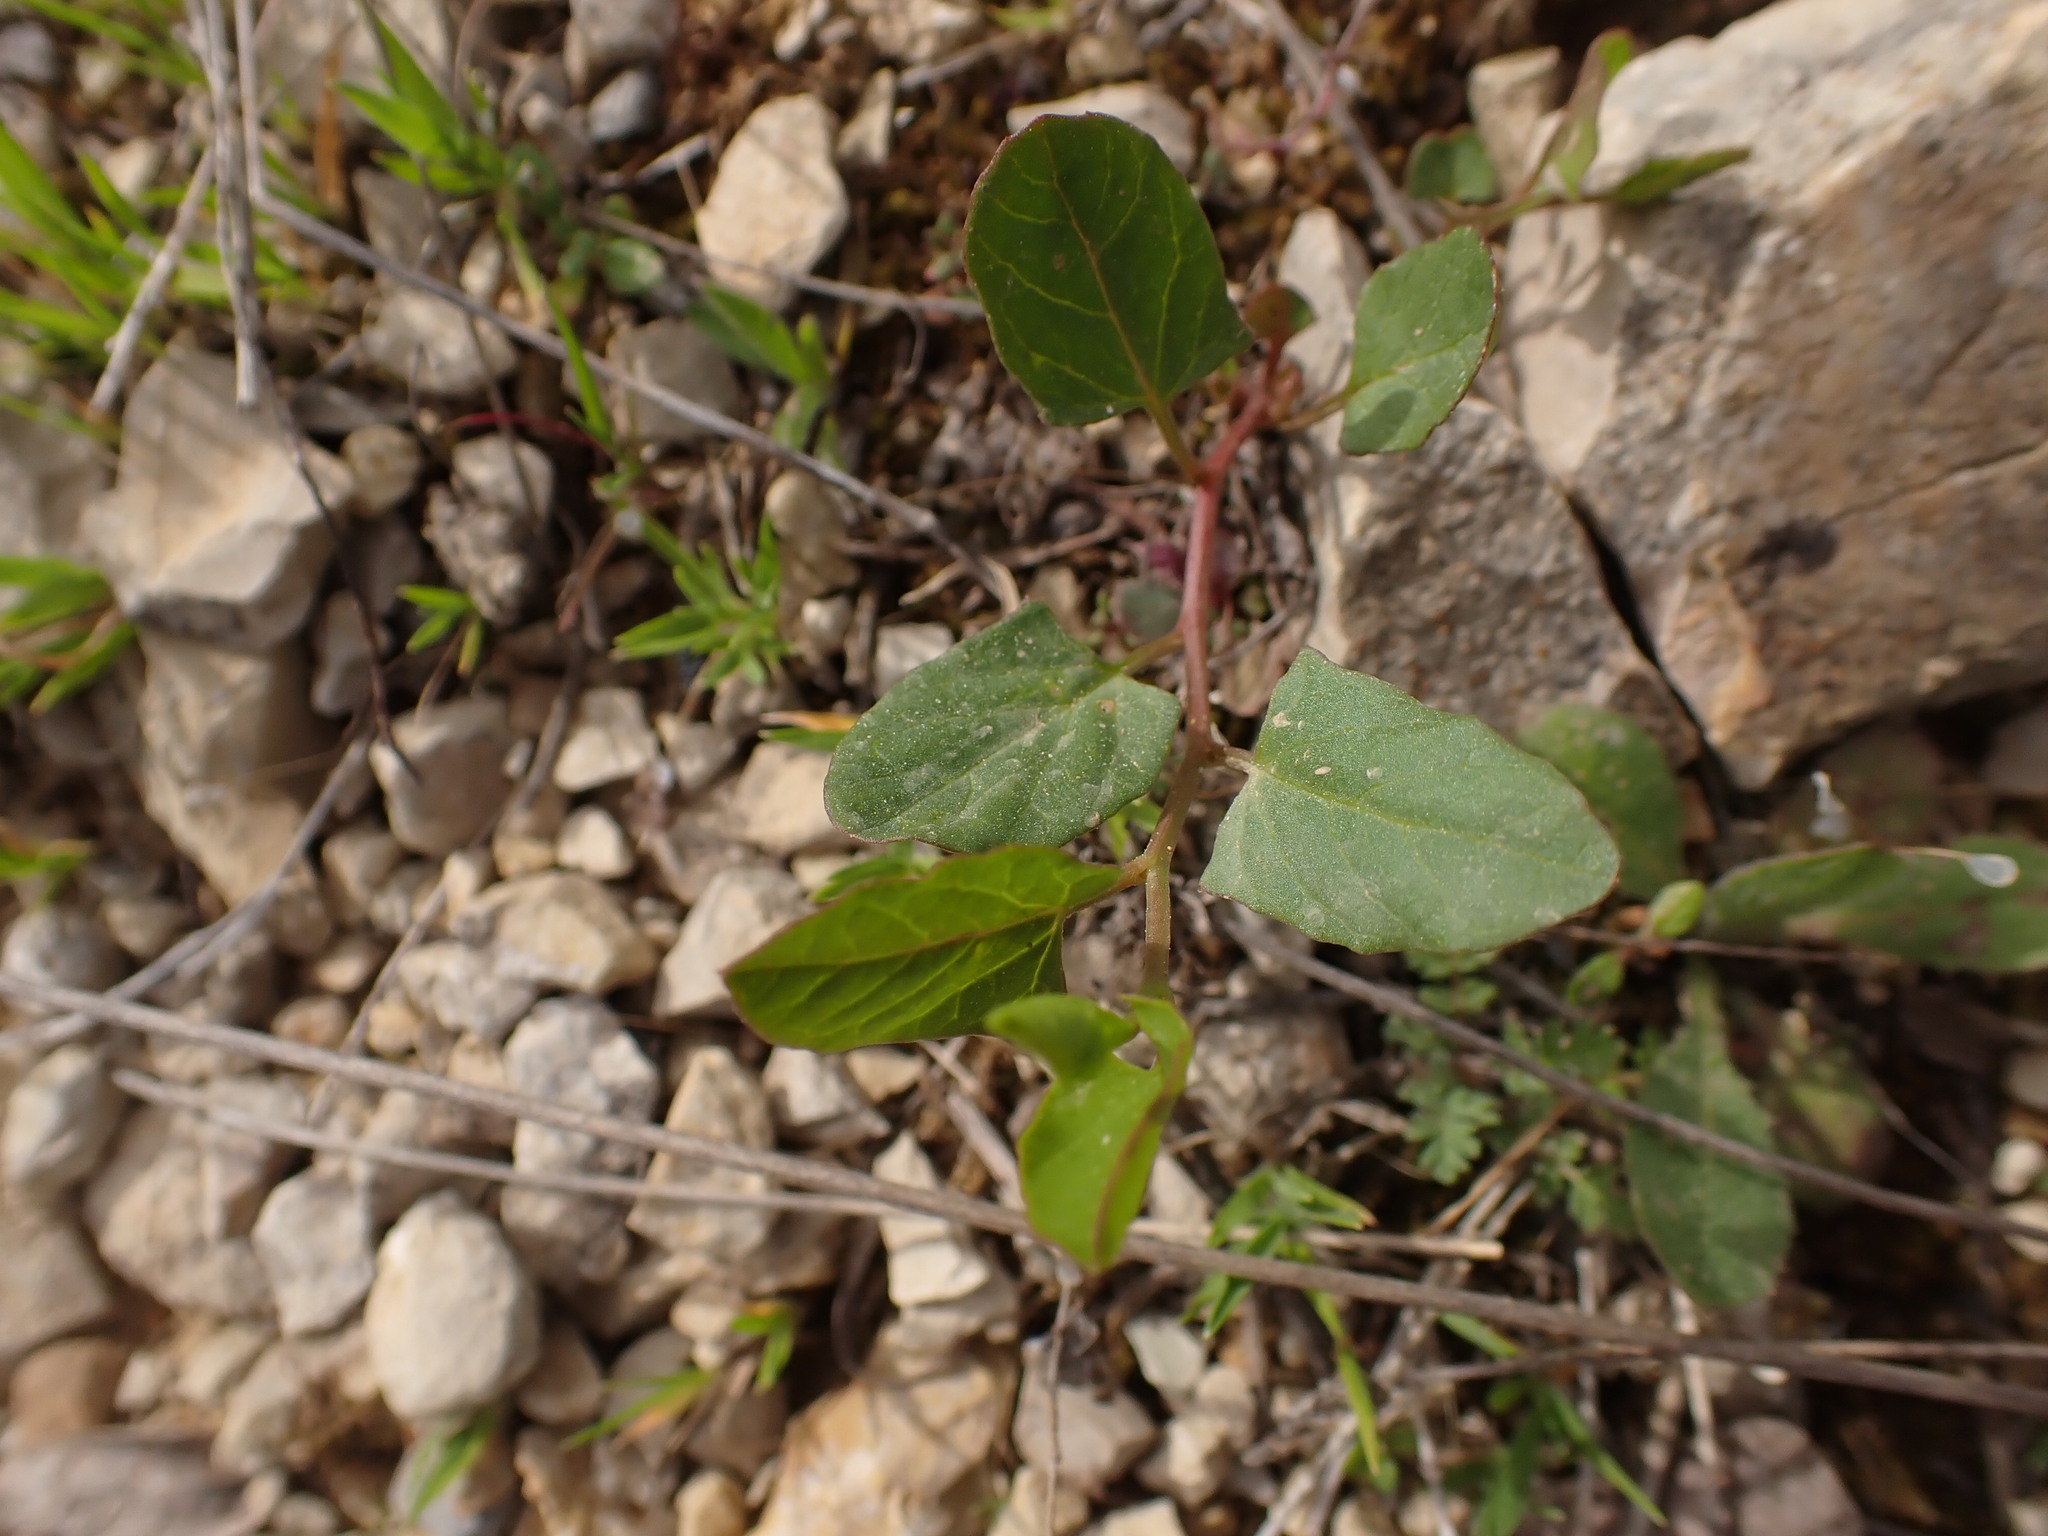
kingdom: Plantae
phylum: Tracheophyta
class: Magnoliopsida
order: Solanales
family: Convolvulaceae
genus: Convolvulus
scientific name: Convolvulus arvensis
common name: Field bindweed
